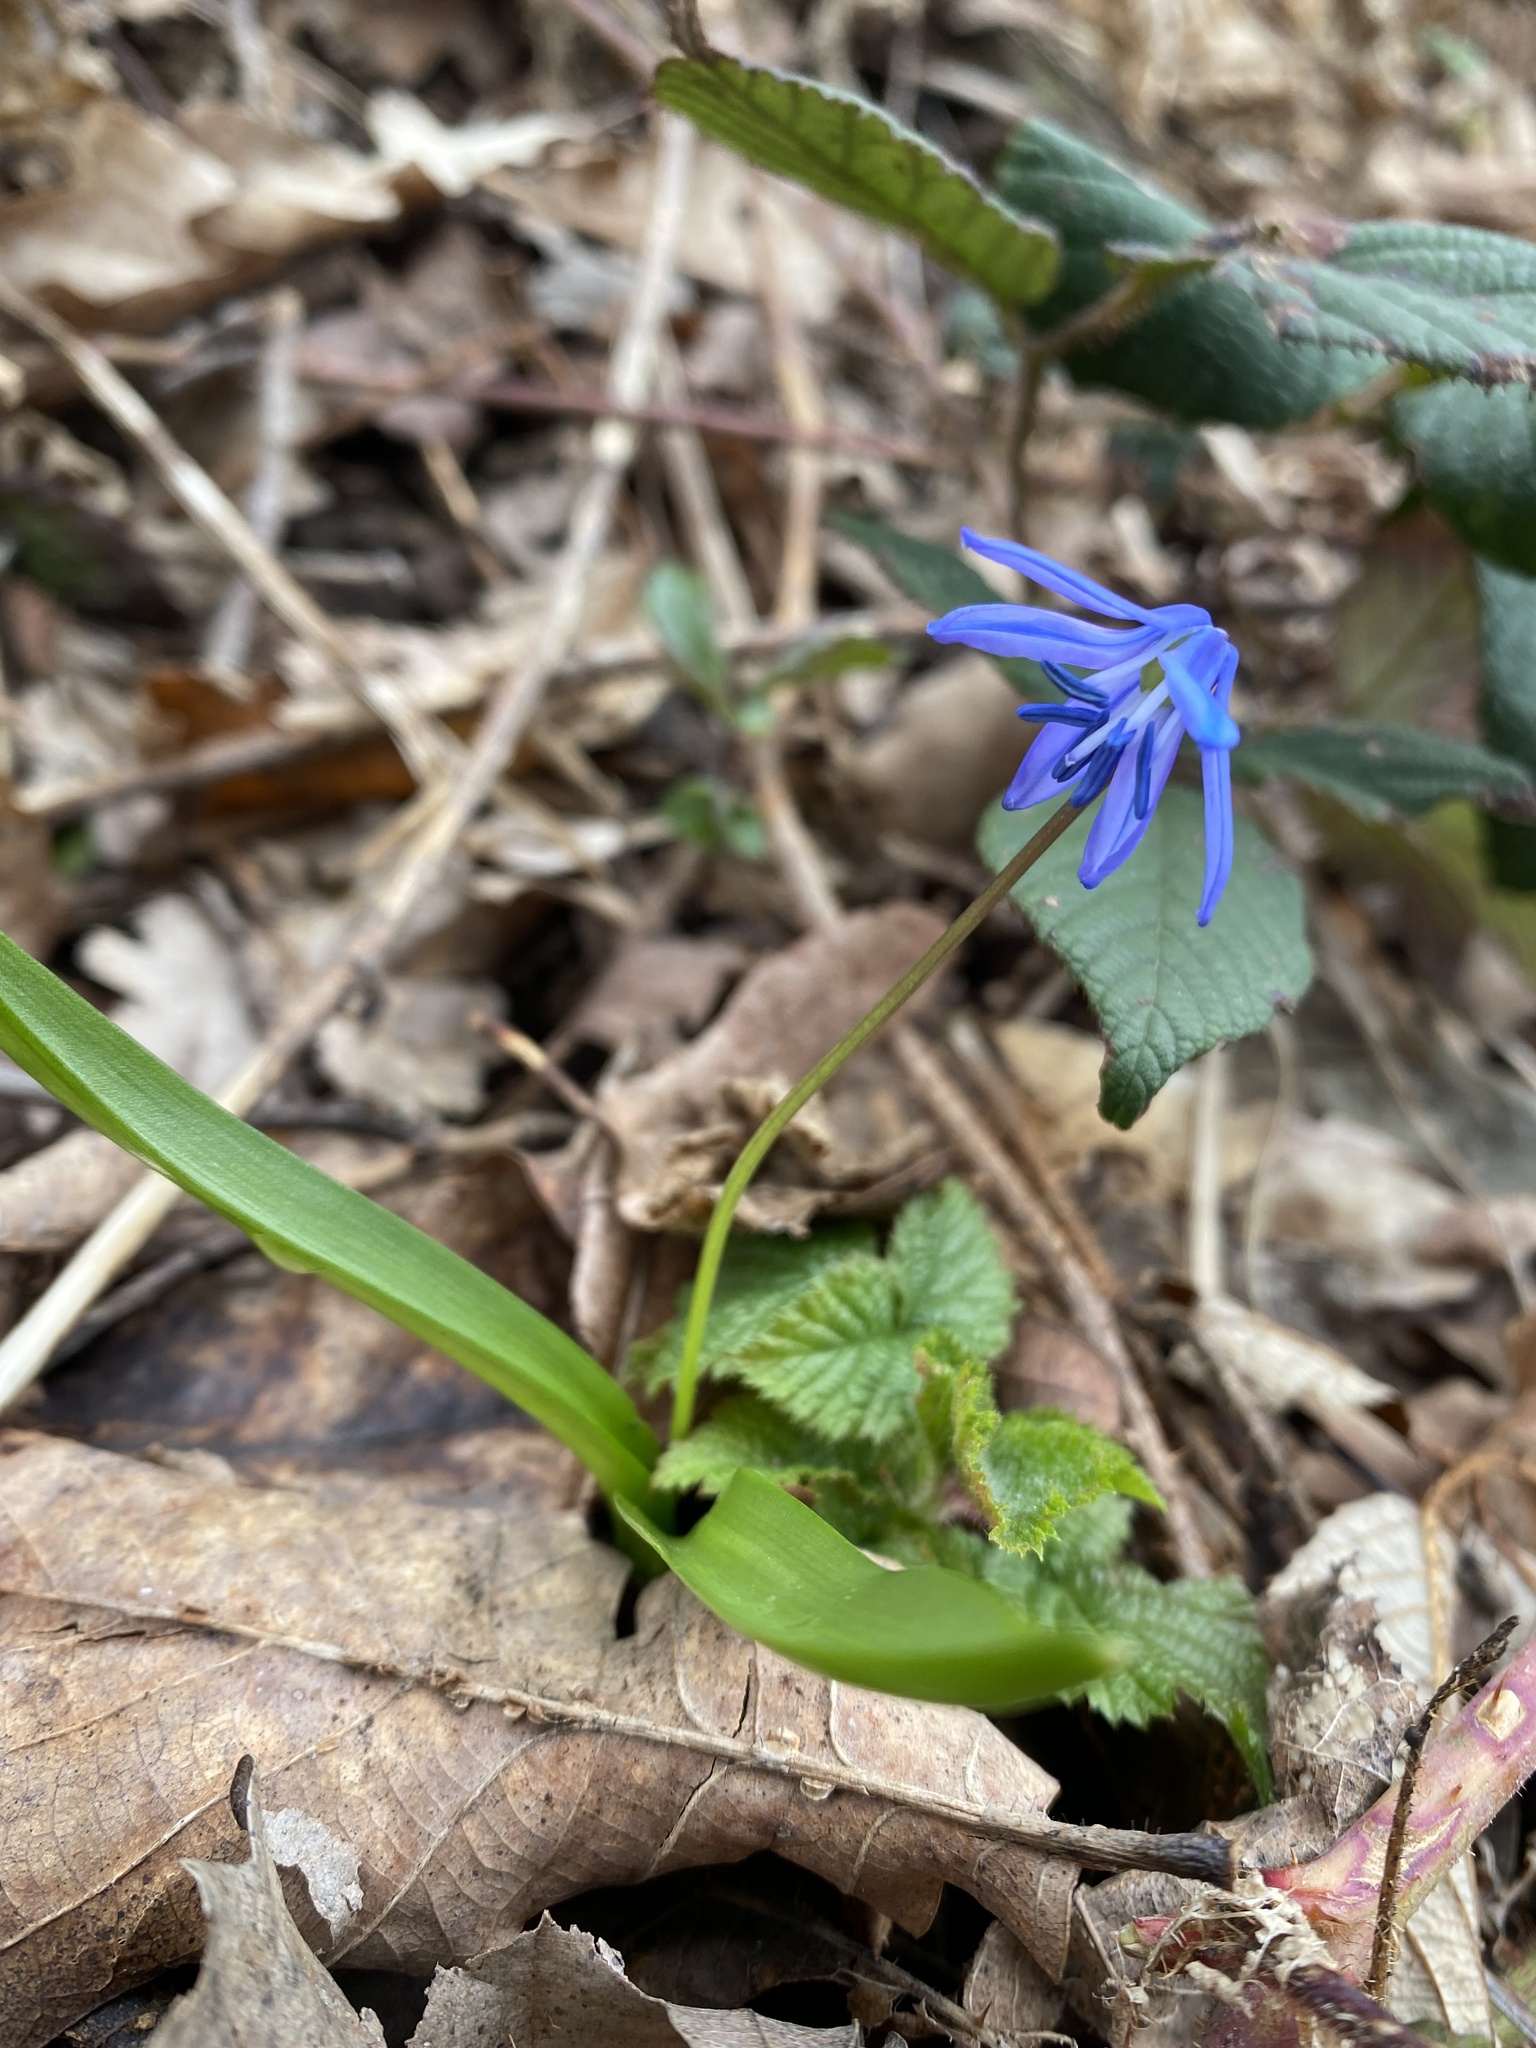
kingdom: Plantae
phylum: Tracheophyta
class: Liliopsida
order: Asparagales
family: Asparagaceae
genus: Scilla
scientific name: Scilla siberica
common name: Siberian squill
